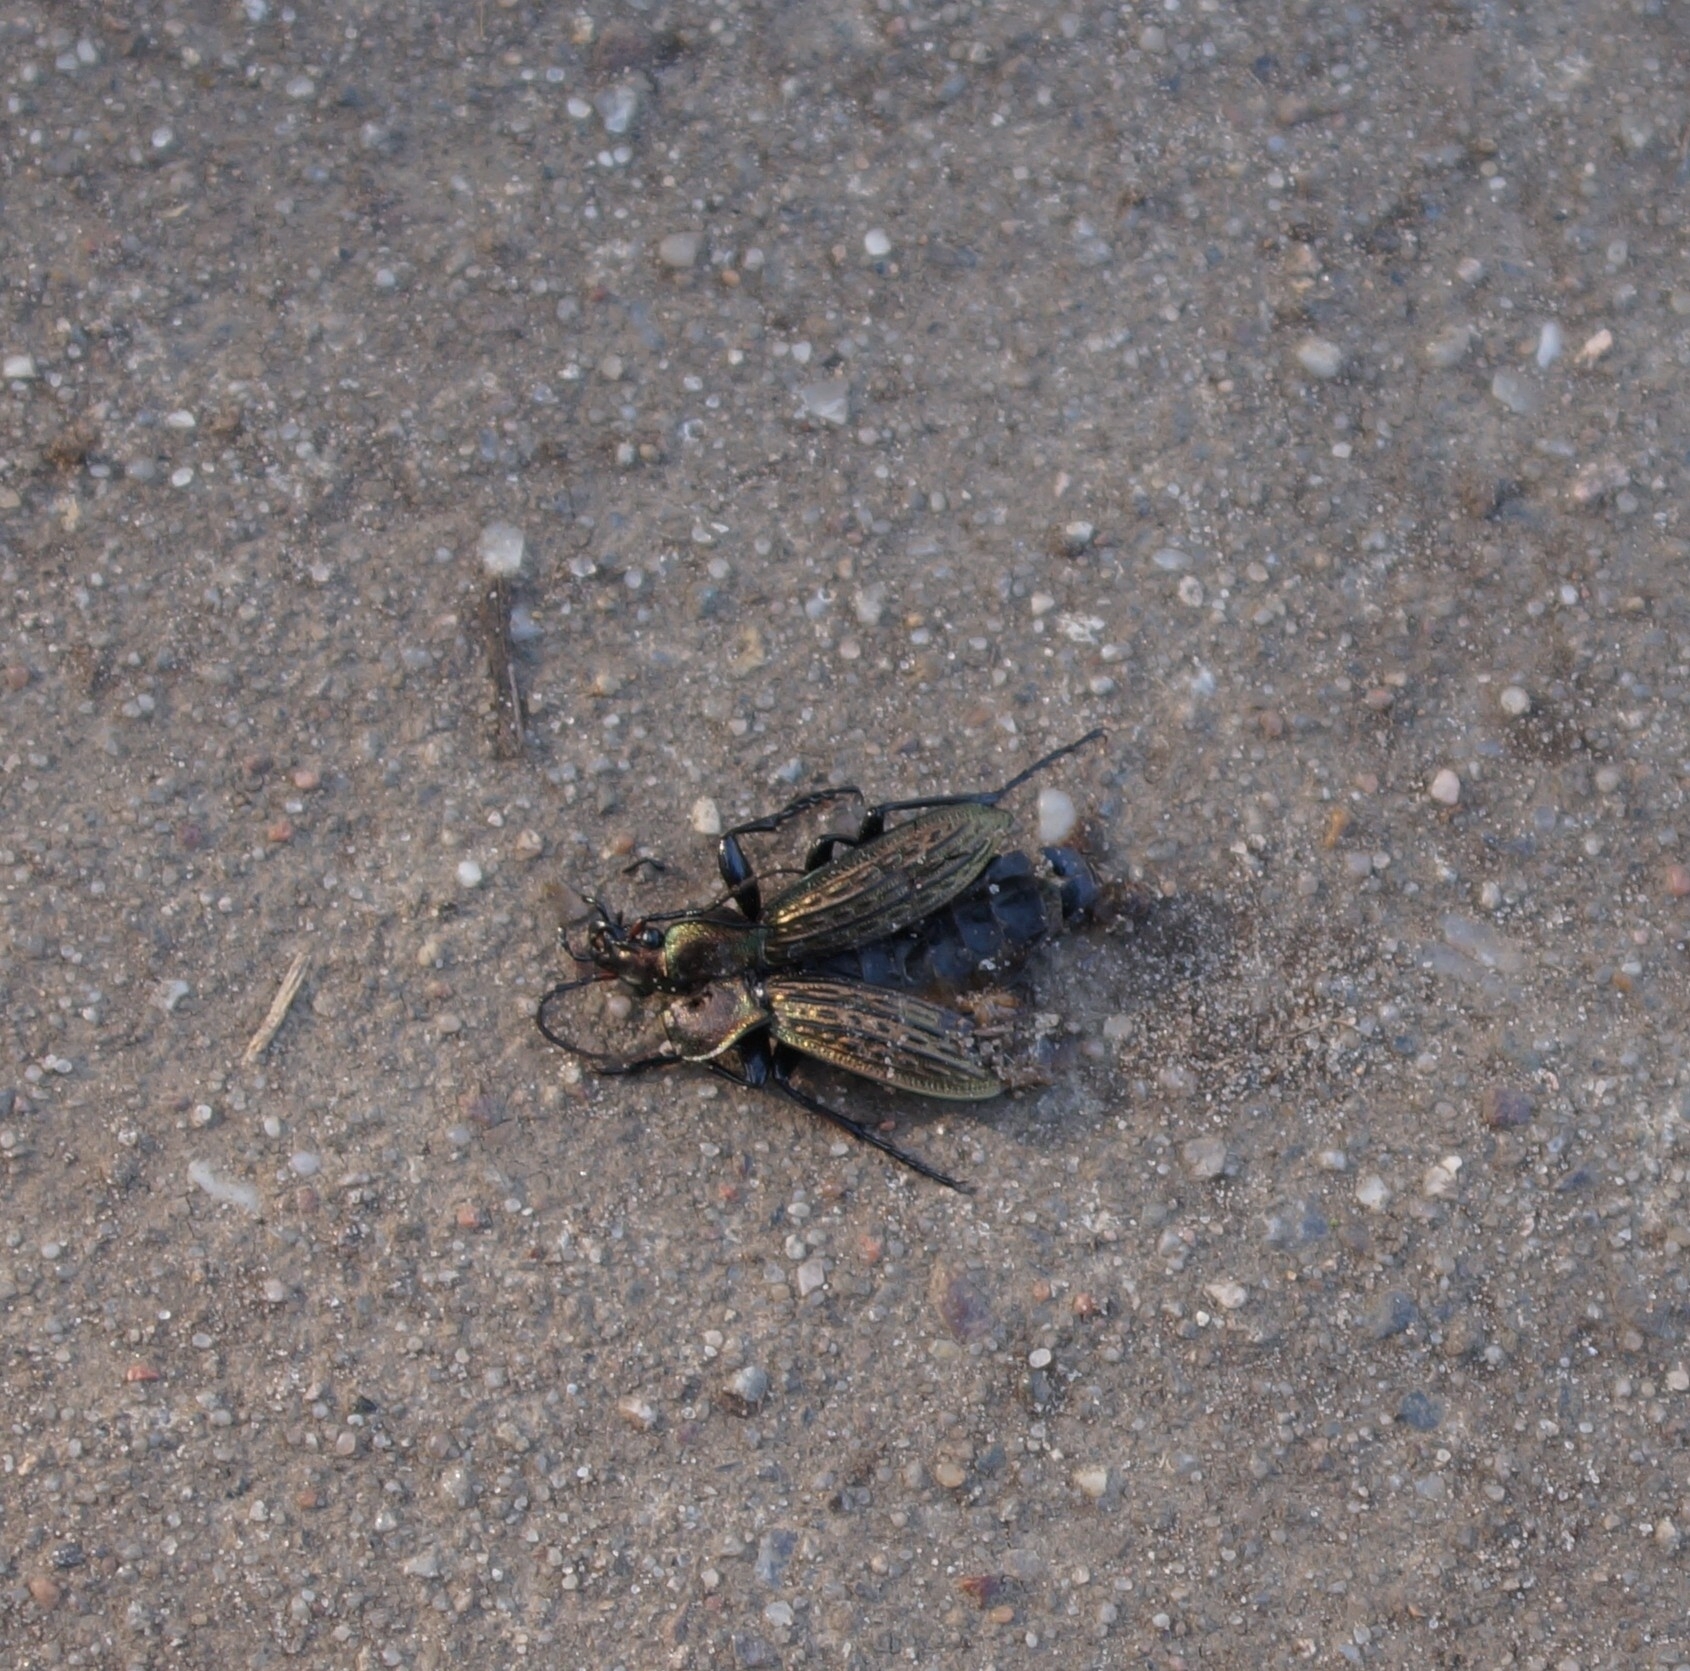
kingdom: Animalia
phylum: Arthropoda
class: Insecta
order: Coleoptera
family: Carabidae
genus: Carabus
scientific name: Carabus cancellatus
